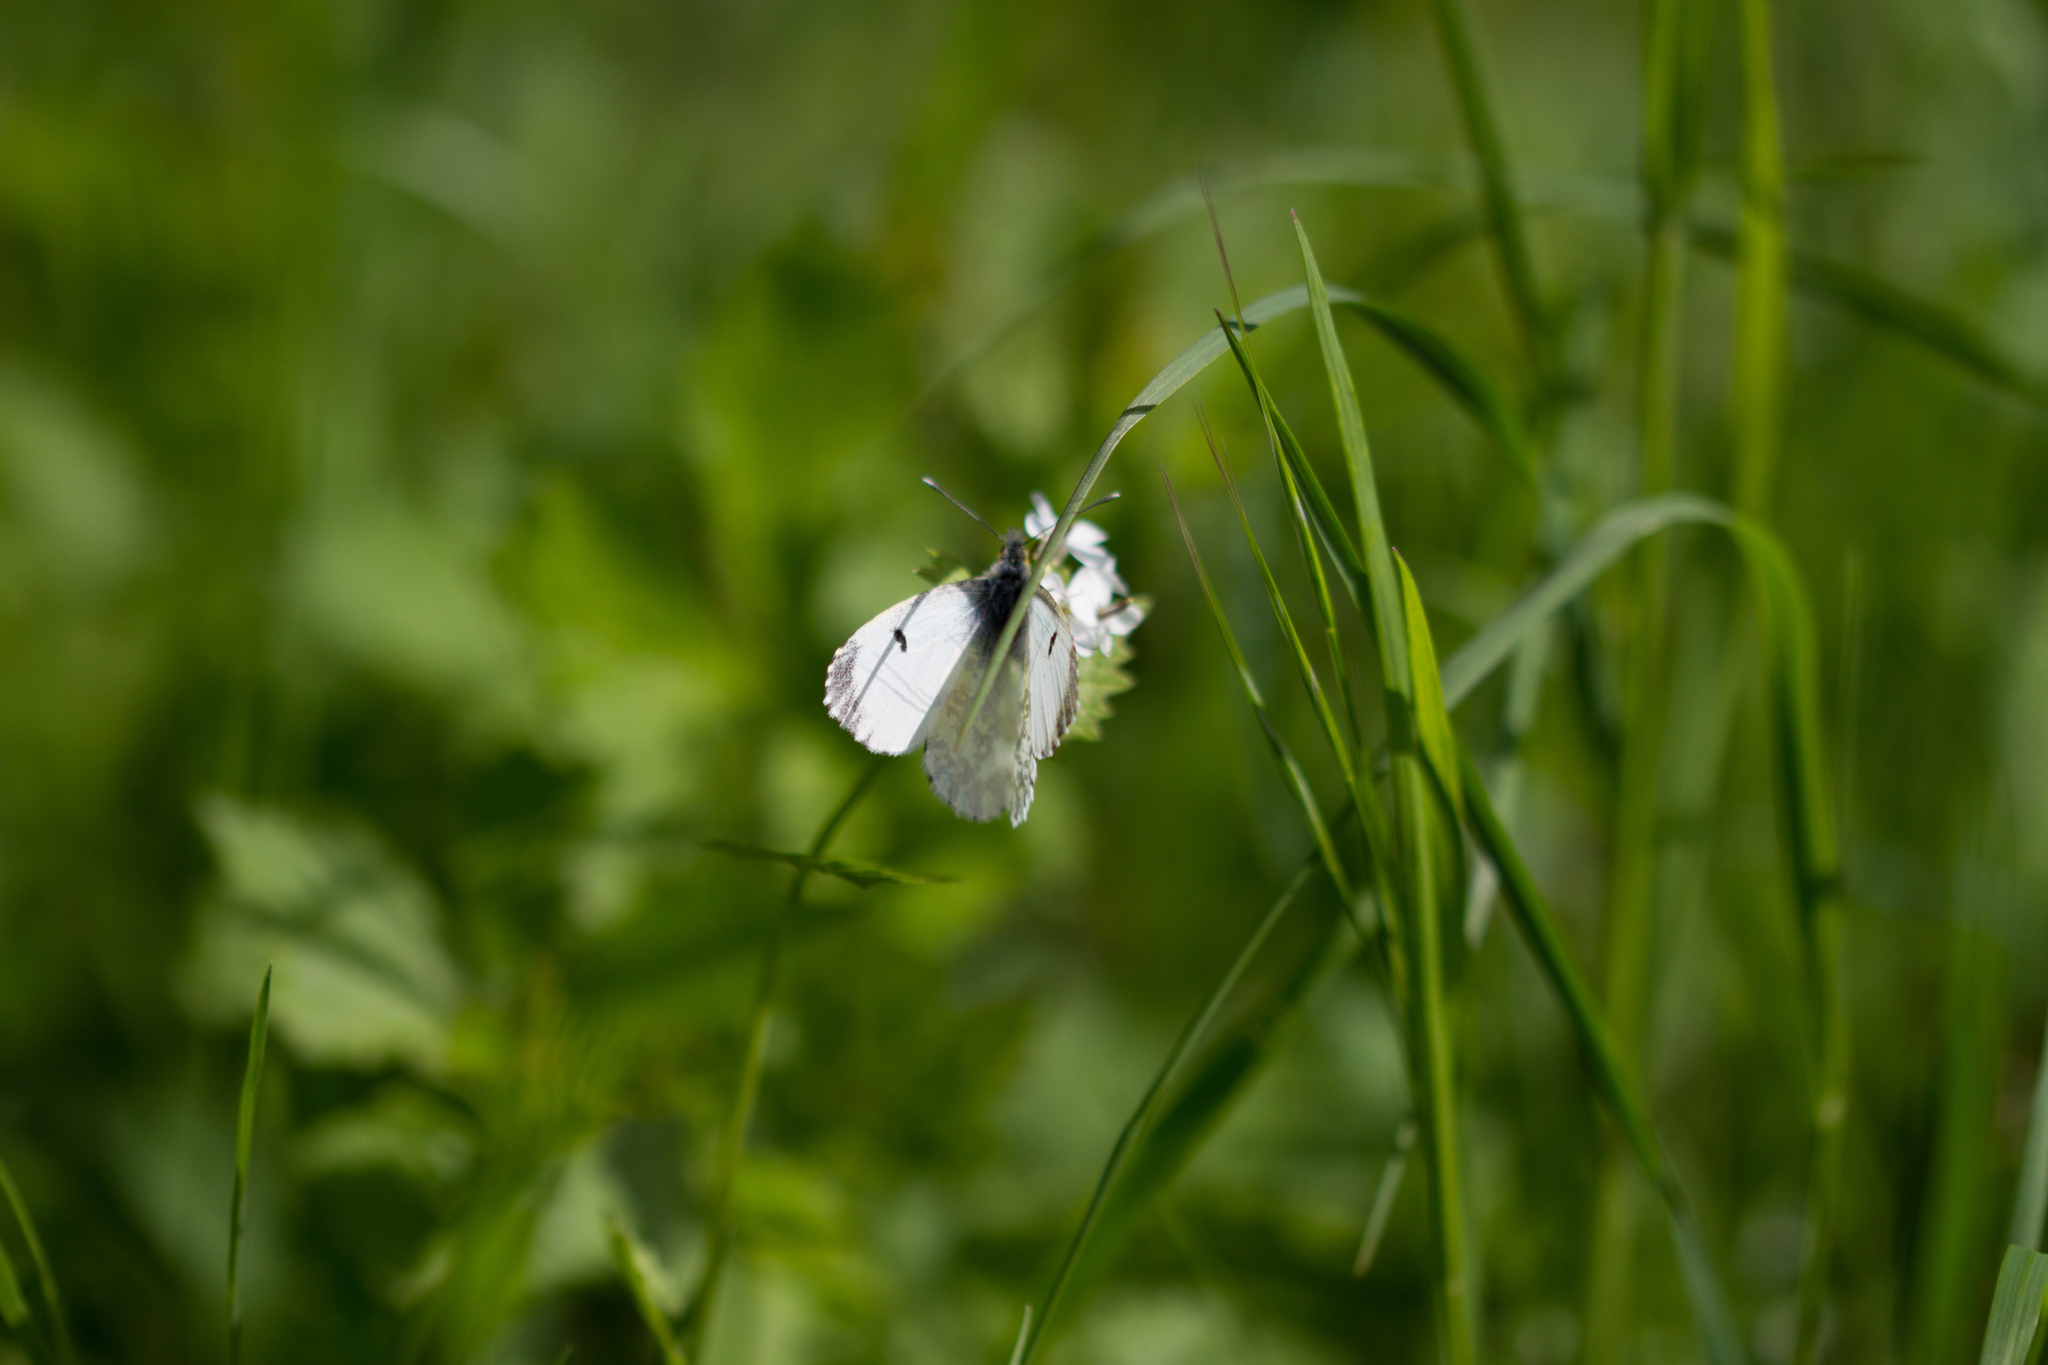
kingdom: Animalia
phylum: Arthropoda
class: Insecta
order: Lepidoptera
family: Pieridae
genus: Anthocharis
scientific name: Anthocharis cardamines
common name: Orange-tip
